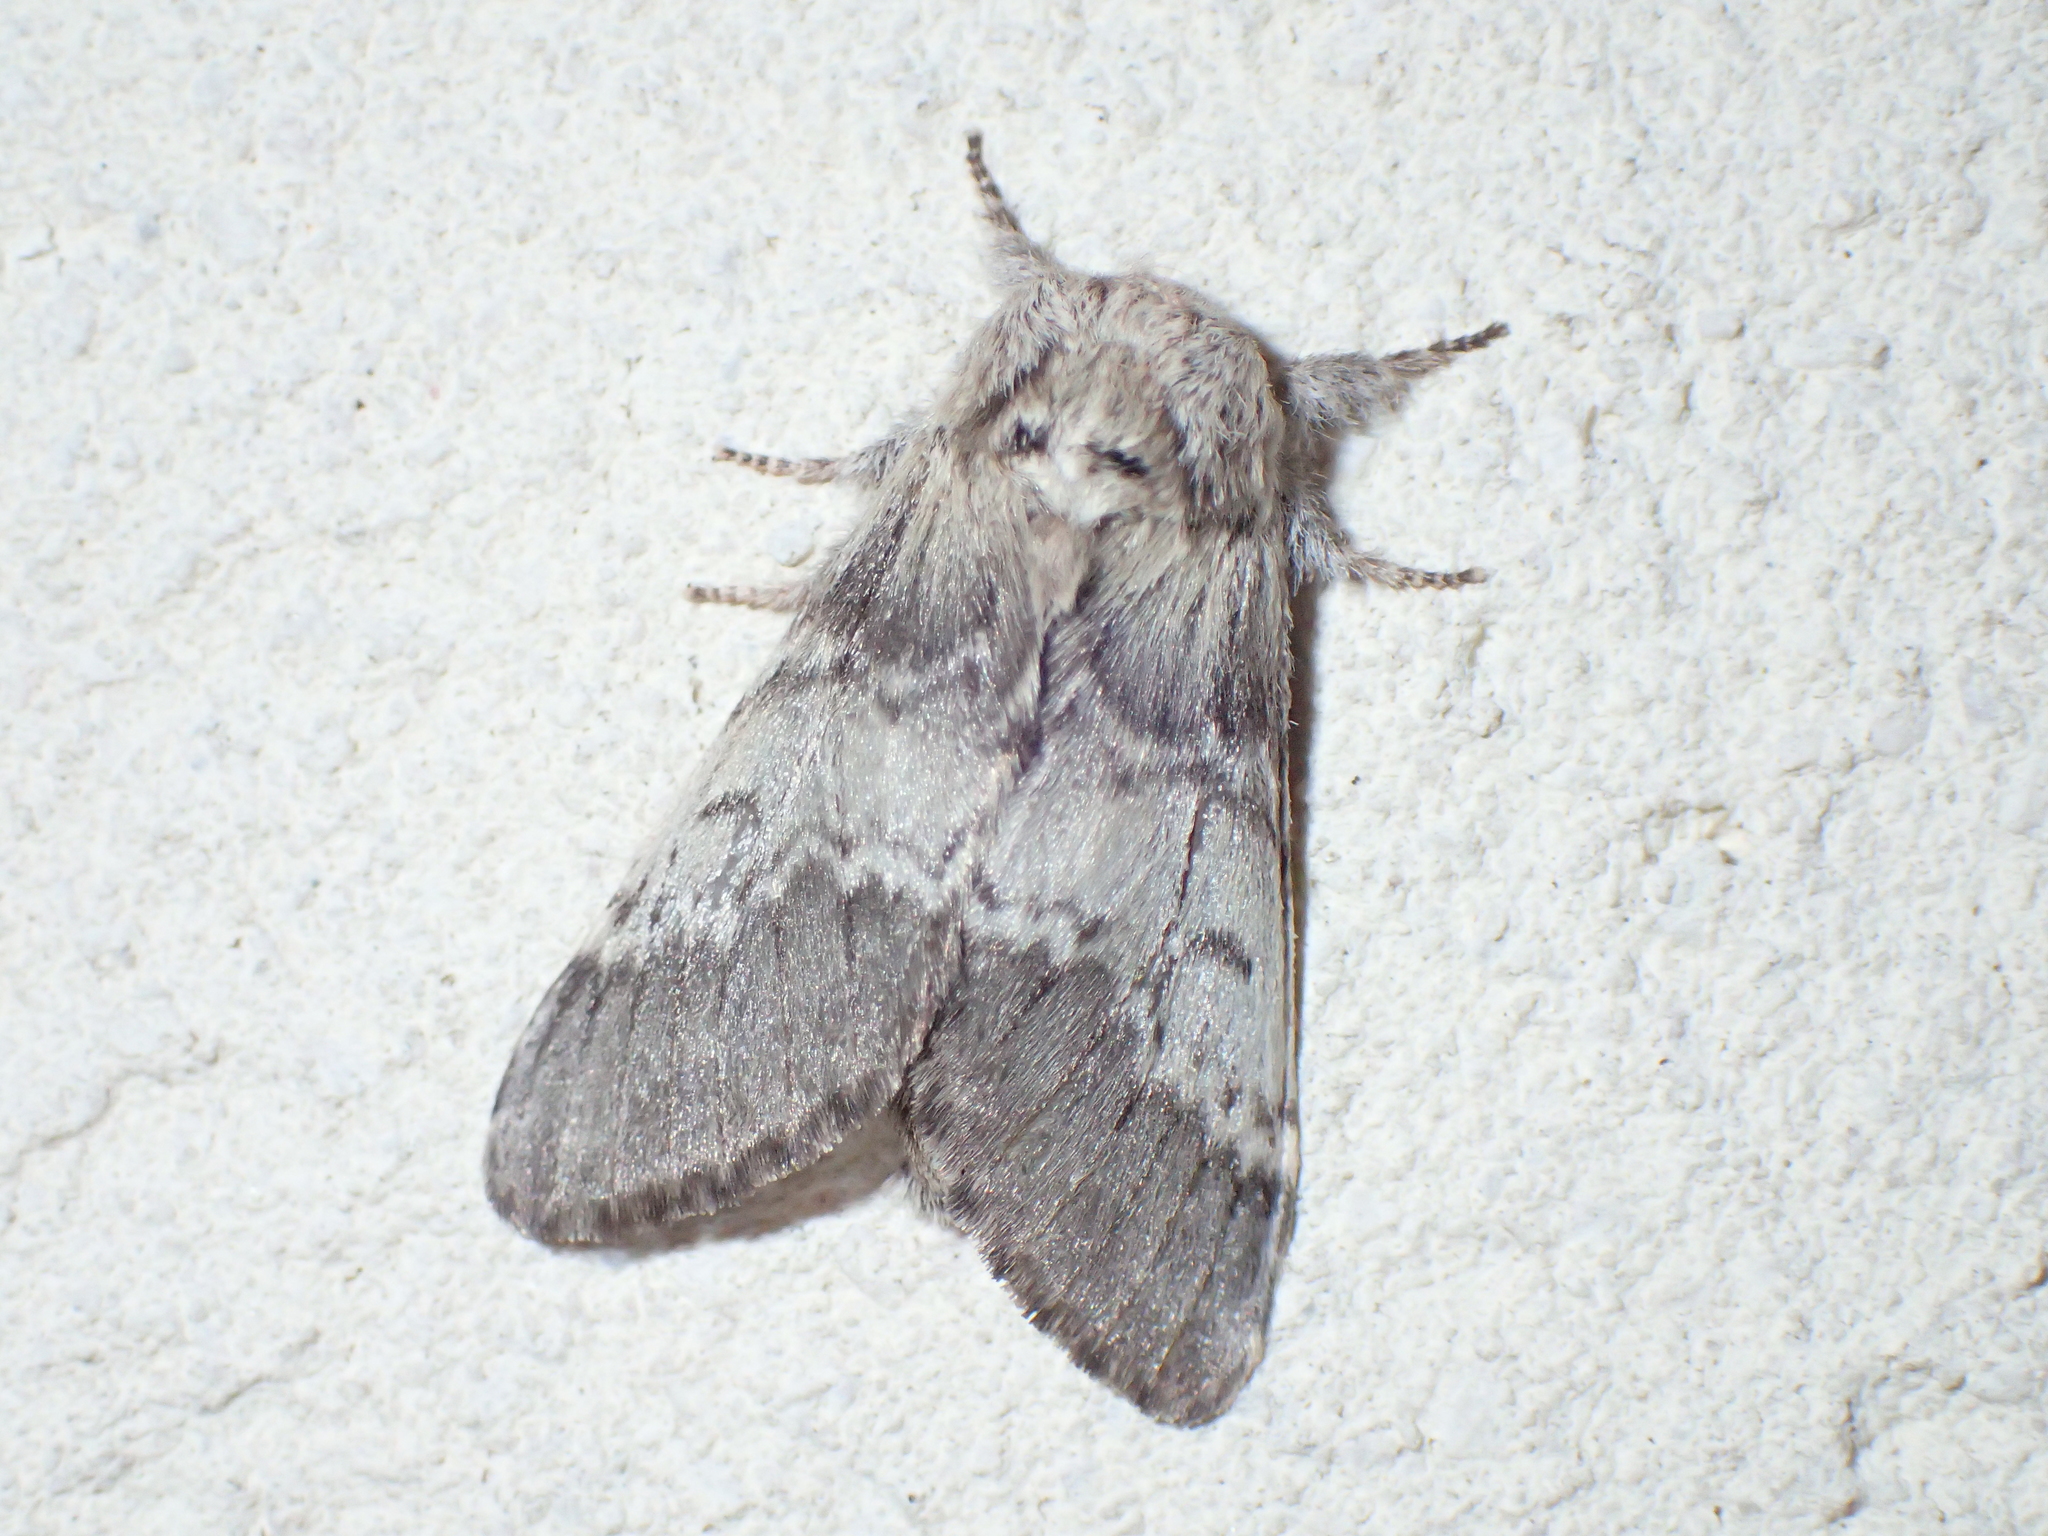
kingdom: Animalia
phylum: Arthropoda
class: Insecta
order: Lepidoptera
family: Notodontidae
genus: Drymonia
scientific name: Drymonia ruficornis
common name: Lunar marbled brown
